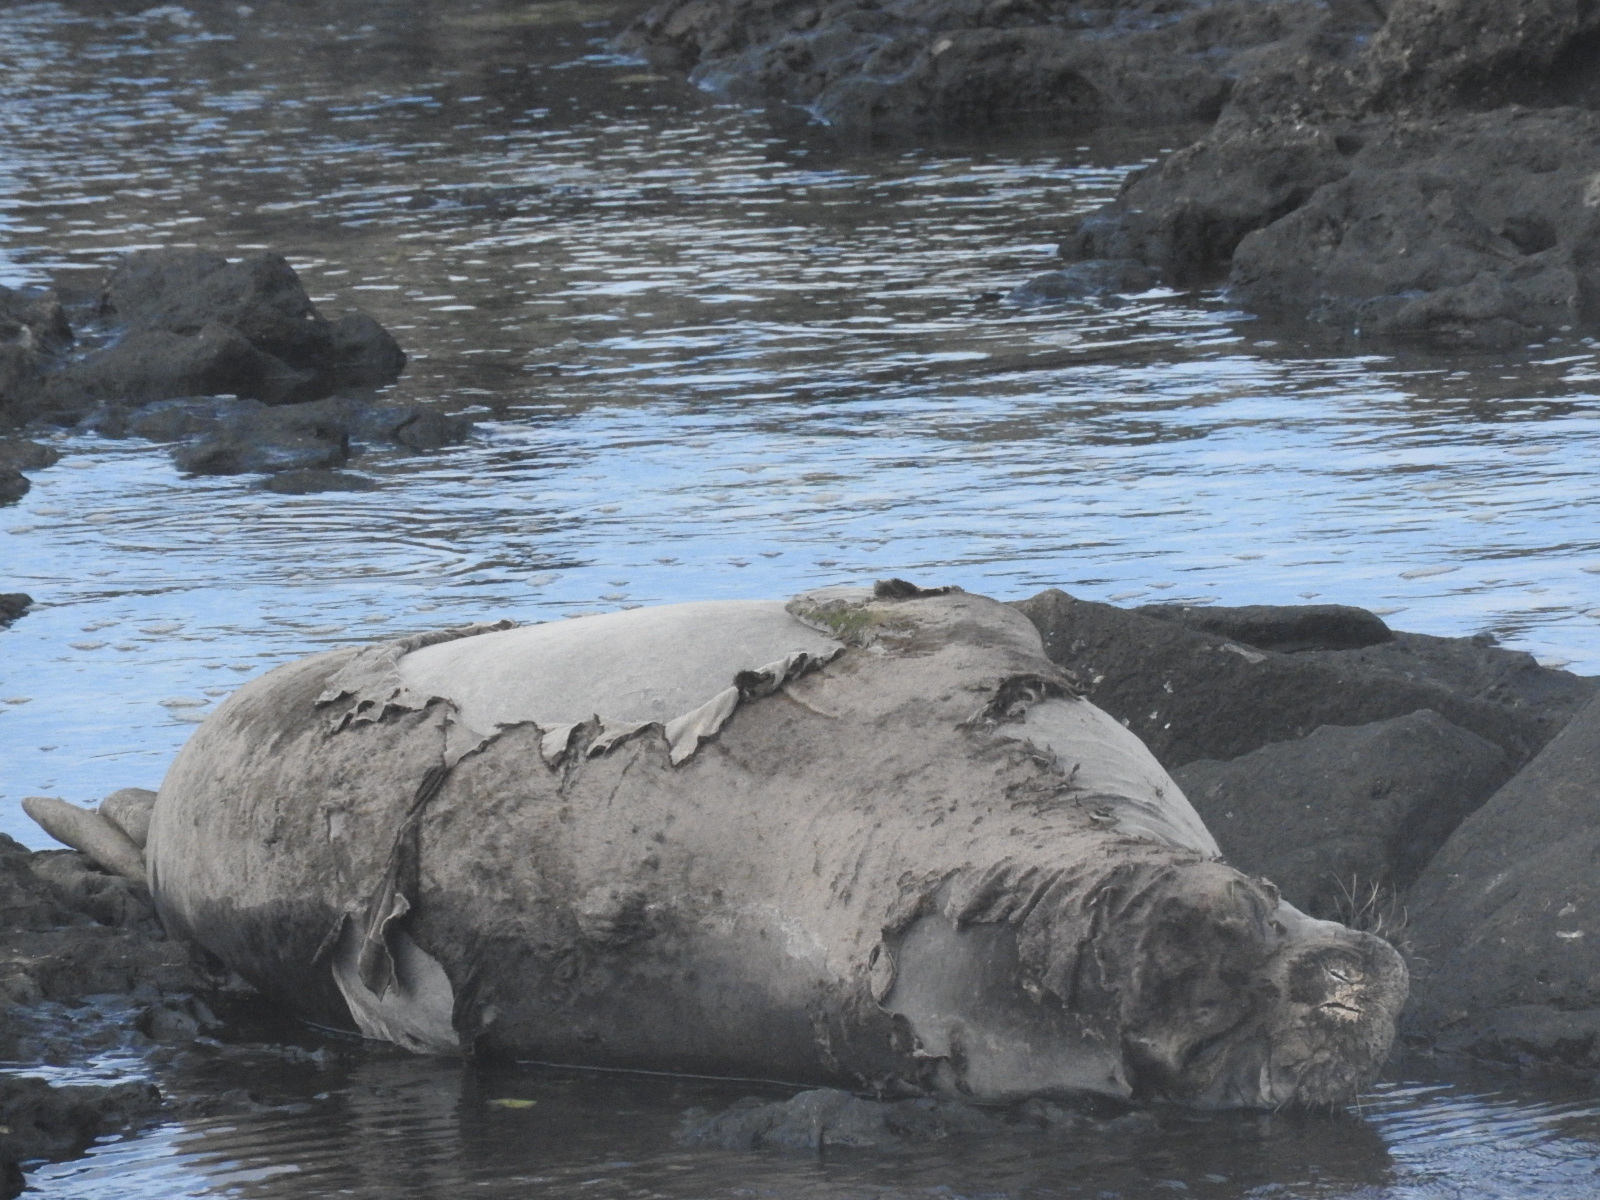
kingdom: Animalia
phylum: Chordata
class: Mammalia
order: Carnivora
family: Phocidae
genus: Neomonachus
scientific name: Neomonachus schauinslandi
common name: Hawaiian monk seal
